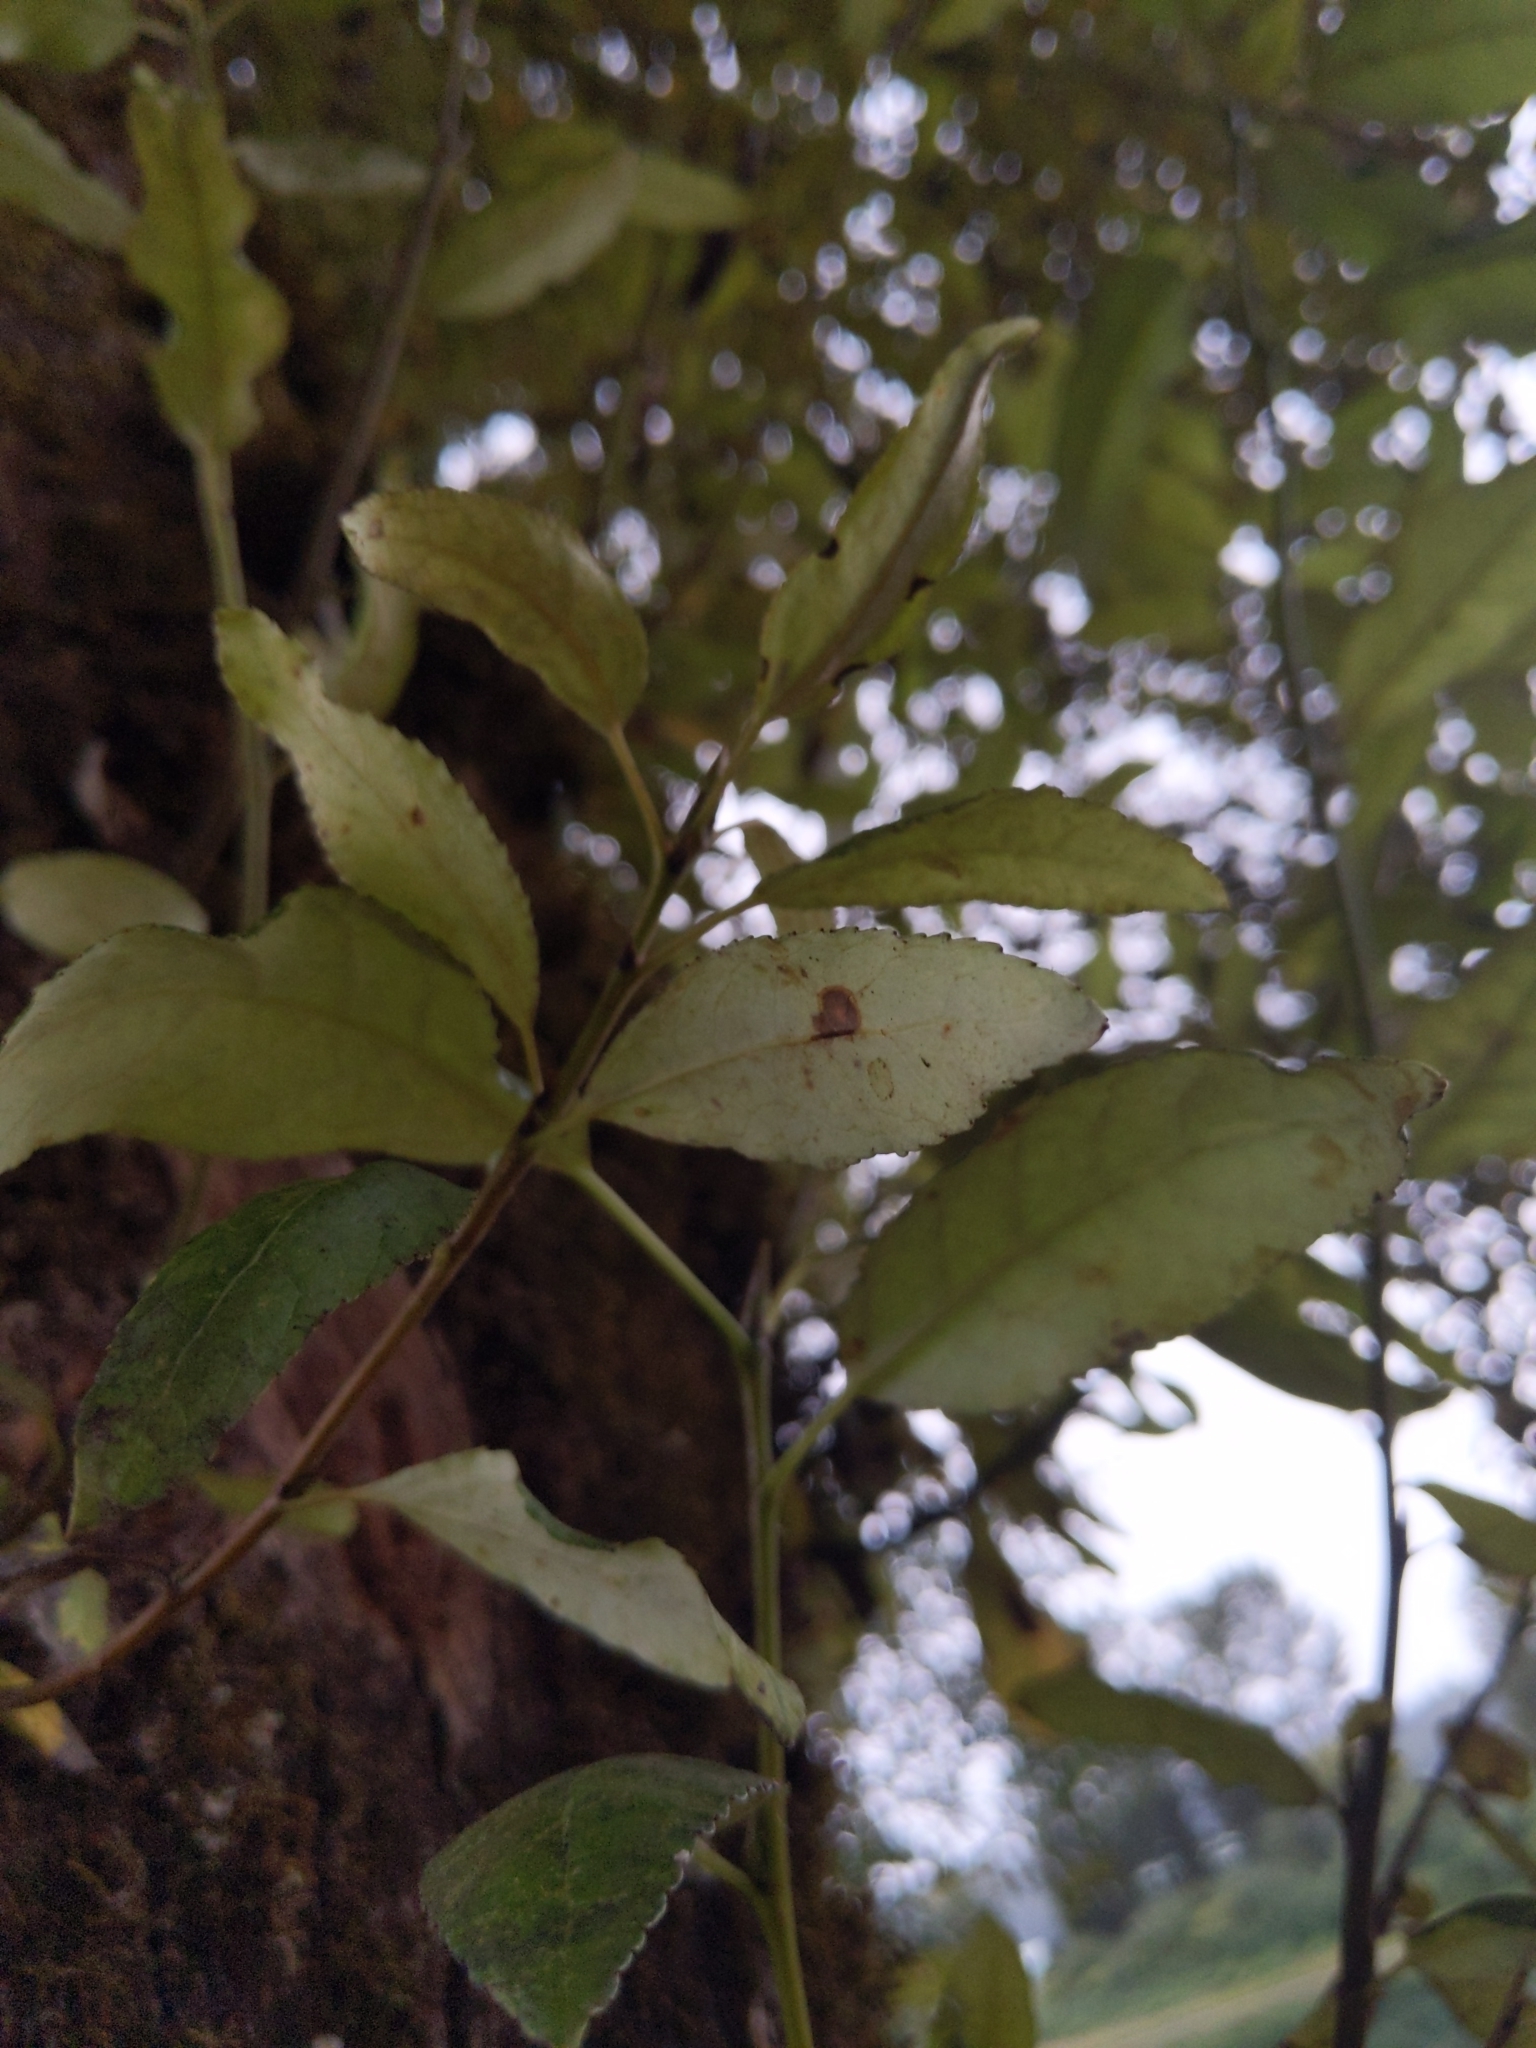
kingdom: Plantae
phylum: Tracheophyta
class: Magnoliopsida
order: Malpighiales
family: Salicaceae
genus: Populus
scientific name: Populus trichocarpa
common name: Black cottonwood
